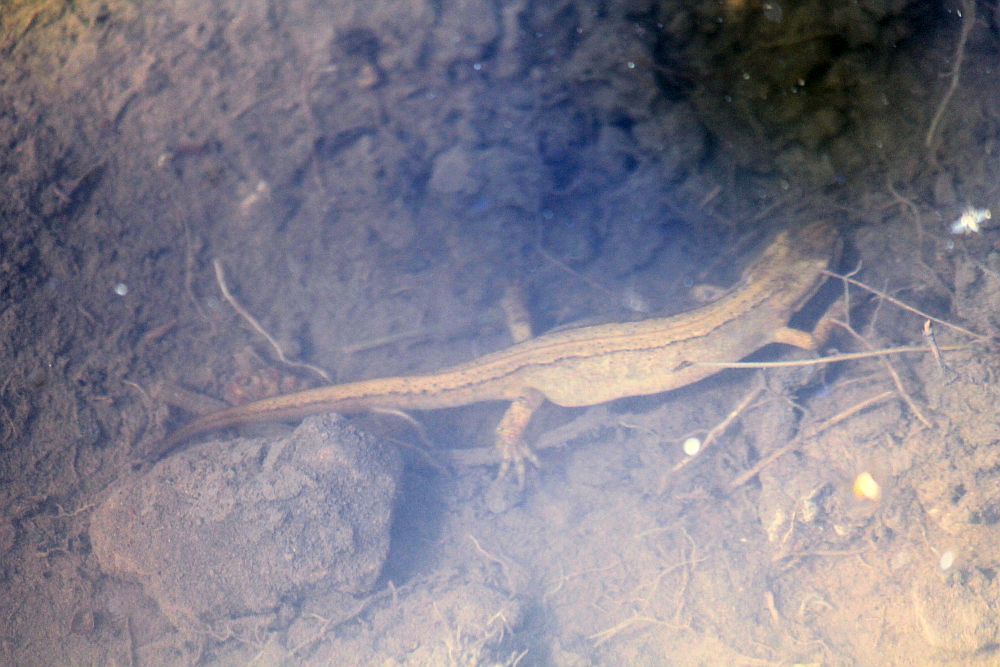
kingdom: Animalia
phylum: Chordata
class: Amphibia
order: Caudata
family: Salamandridae
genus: Lissotriton
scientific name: Lissotriton vulgaris
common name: Smooth newt
